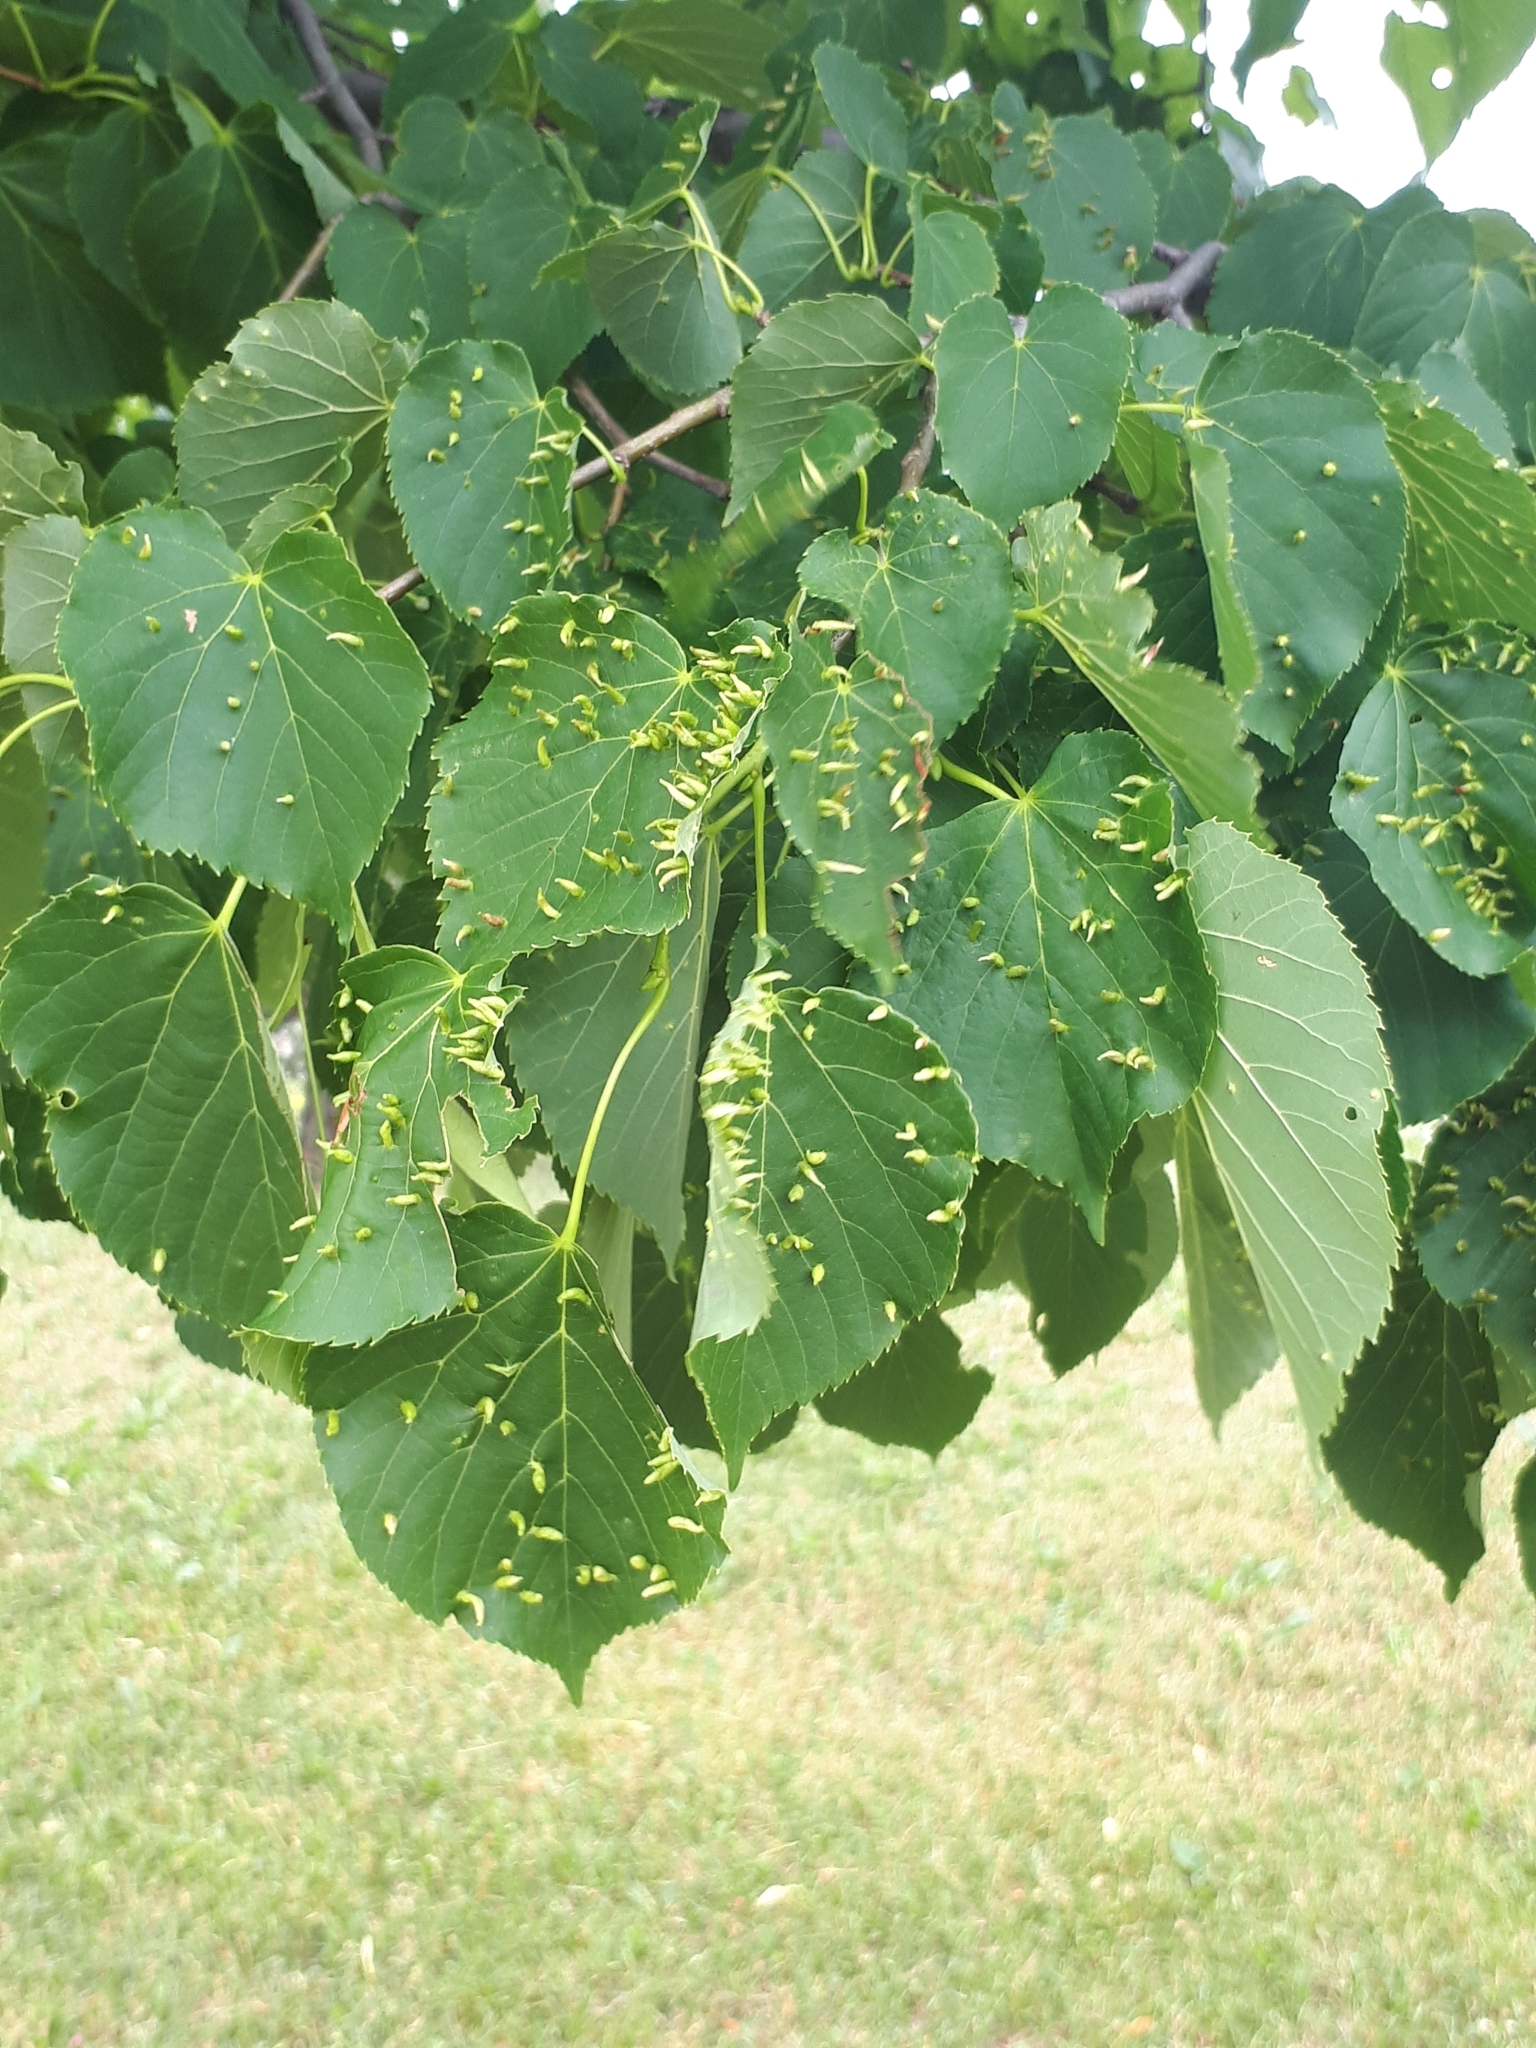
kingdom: Animalia
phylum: Arthropoda
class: Arachnida
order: Trombidiformes
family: Eriophyidae
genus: Eriophyes
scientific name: Eriophyes tiliae
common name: Red nail gall mite
